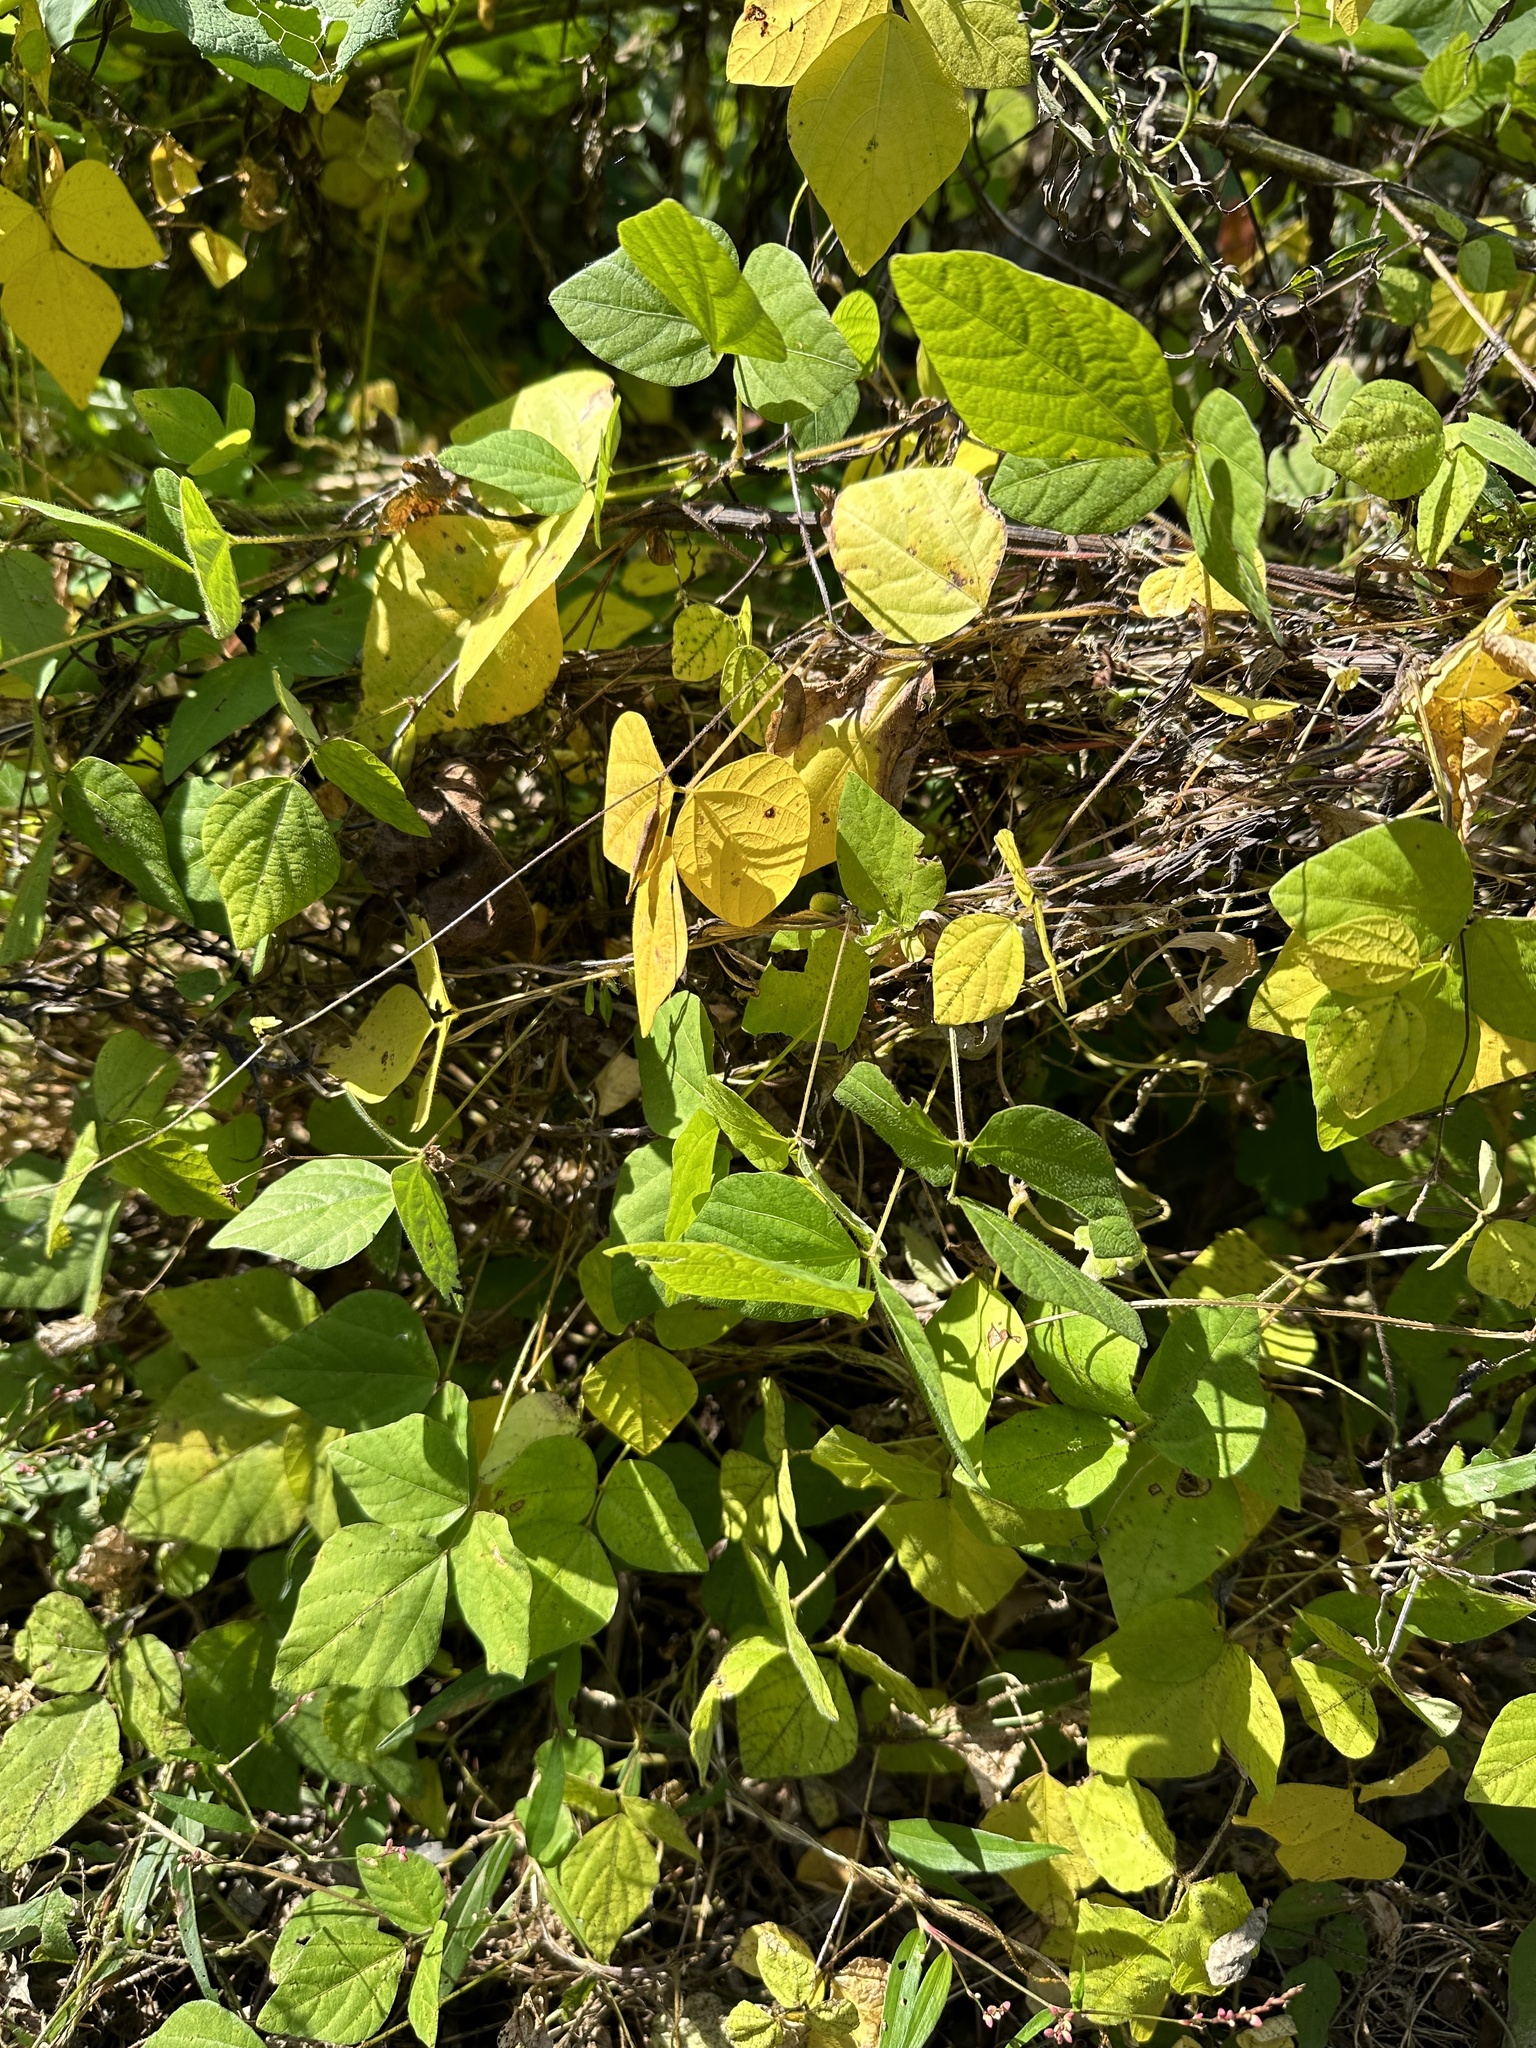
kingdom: Plantae
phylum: Tracheophyta
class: Magnoliopsida
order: Fabales
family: Fabaceae
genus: Amphicarpaea
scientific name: Amphicarpaea edgeworthii
